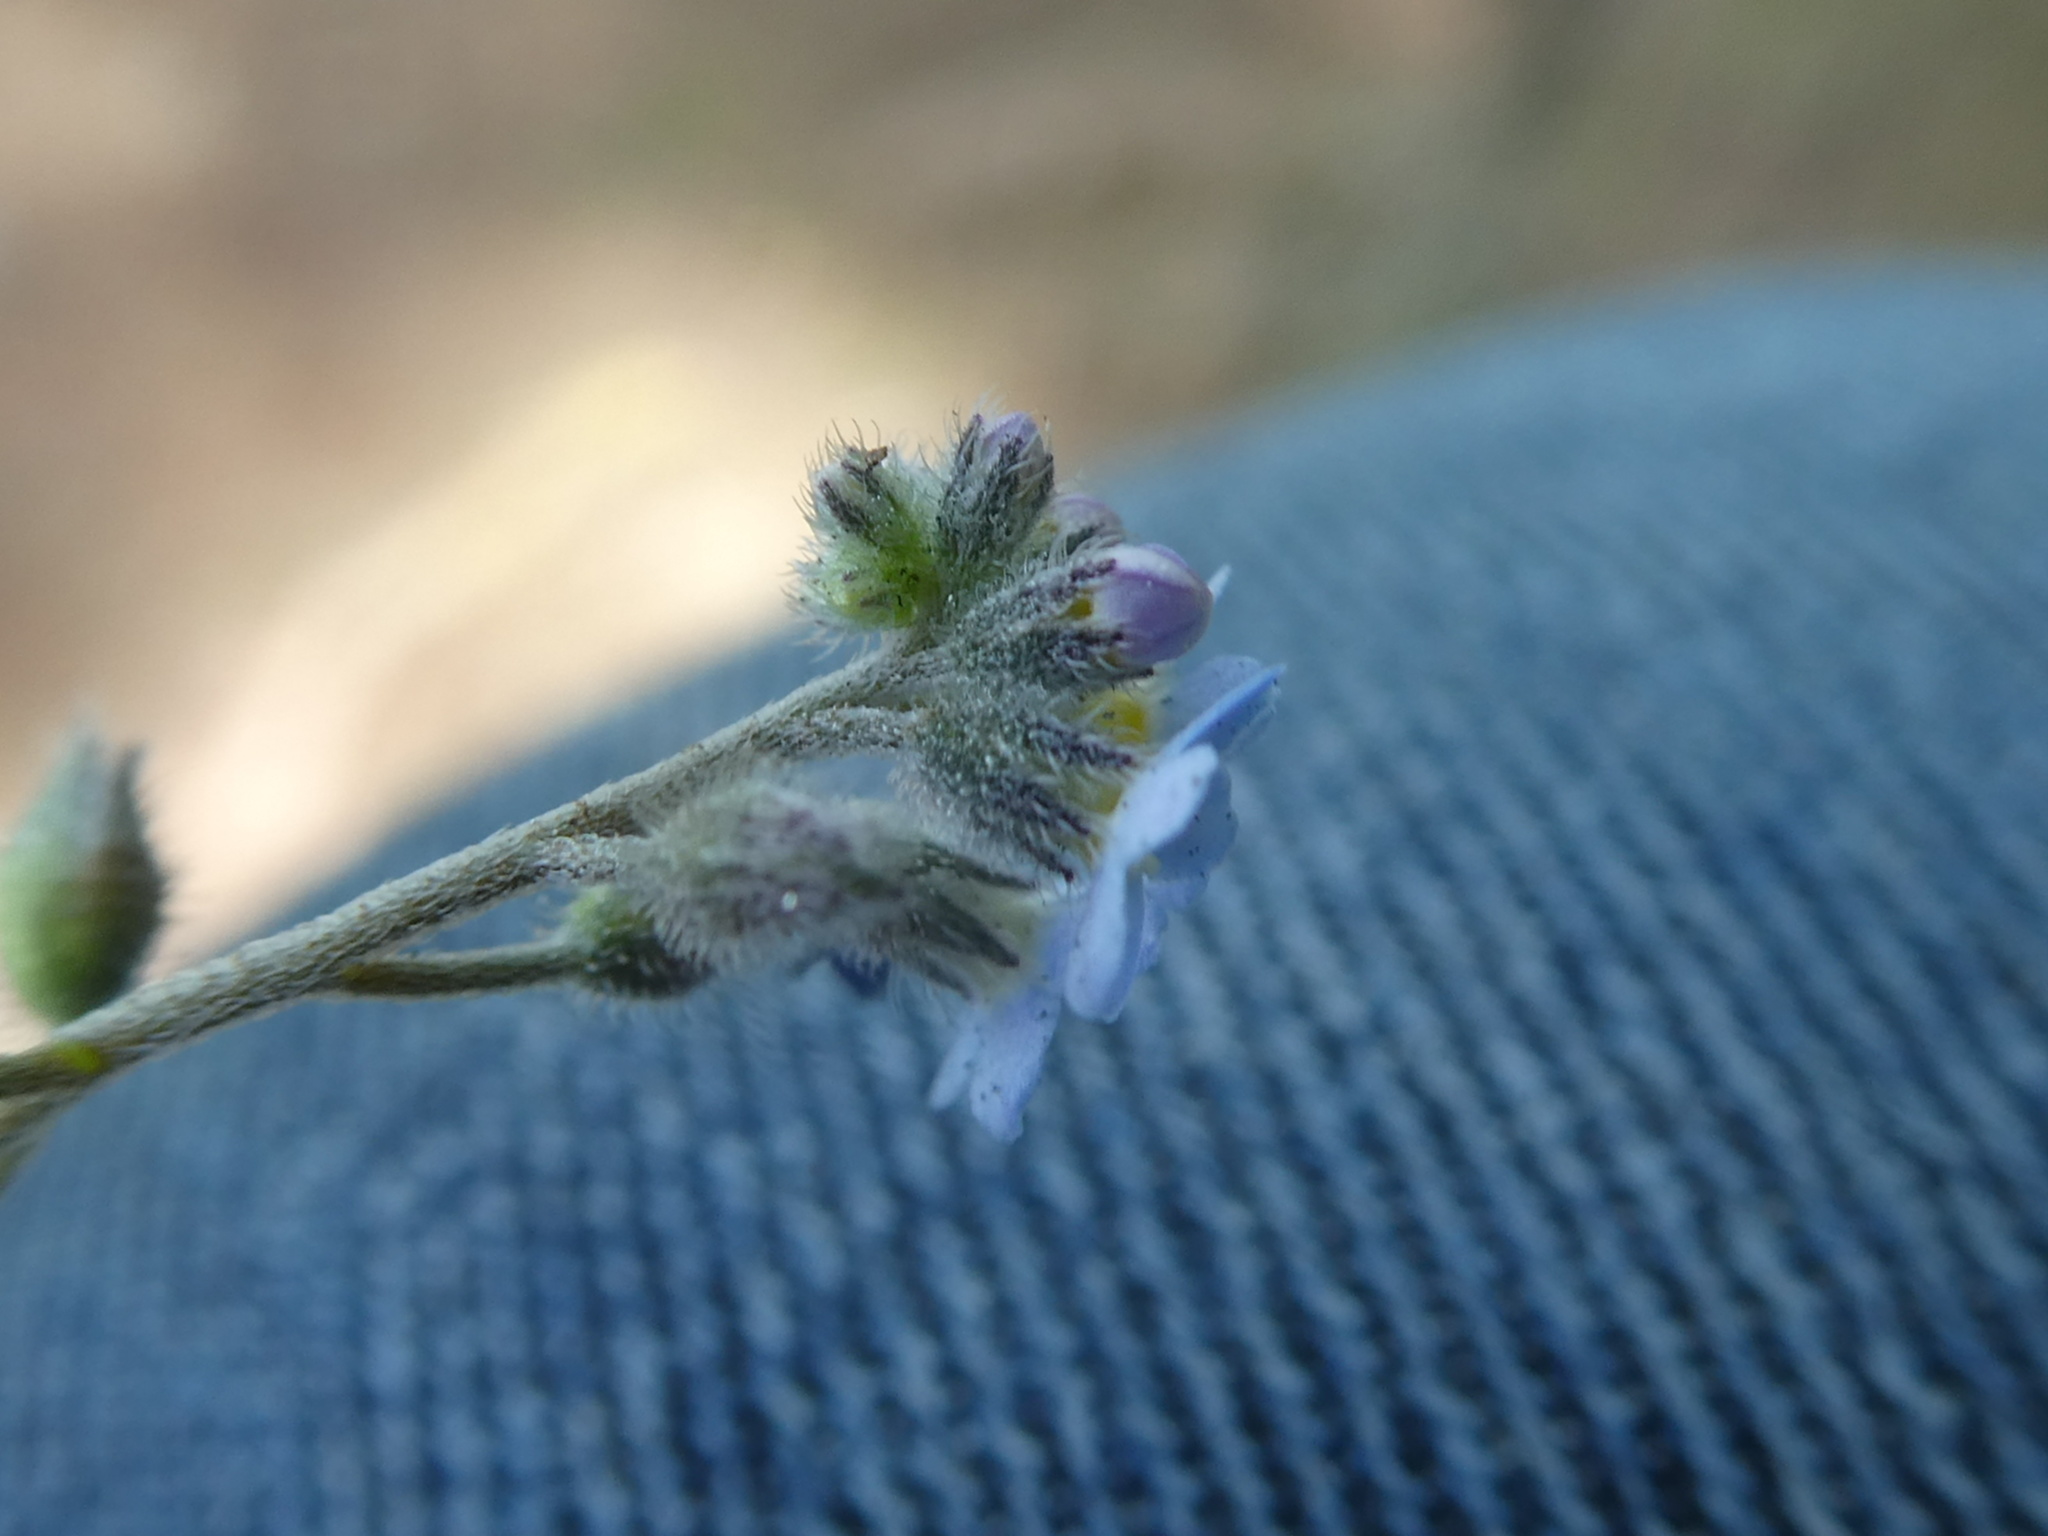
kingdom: Plantae
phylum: Tracheophyta
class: Magnoliopsida
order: Boraginales
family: Boraginaceae
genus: Myosotis
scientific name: Myosotis arvensis
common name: Field forget-me-not
